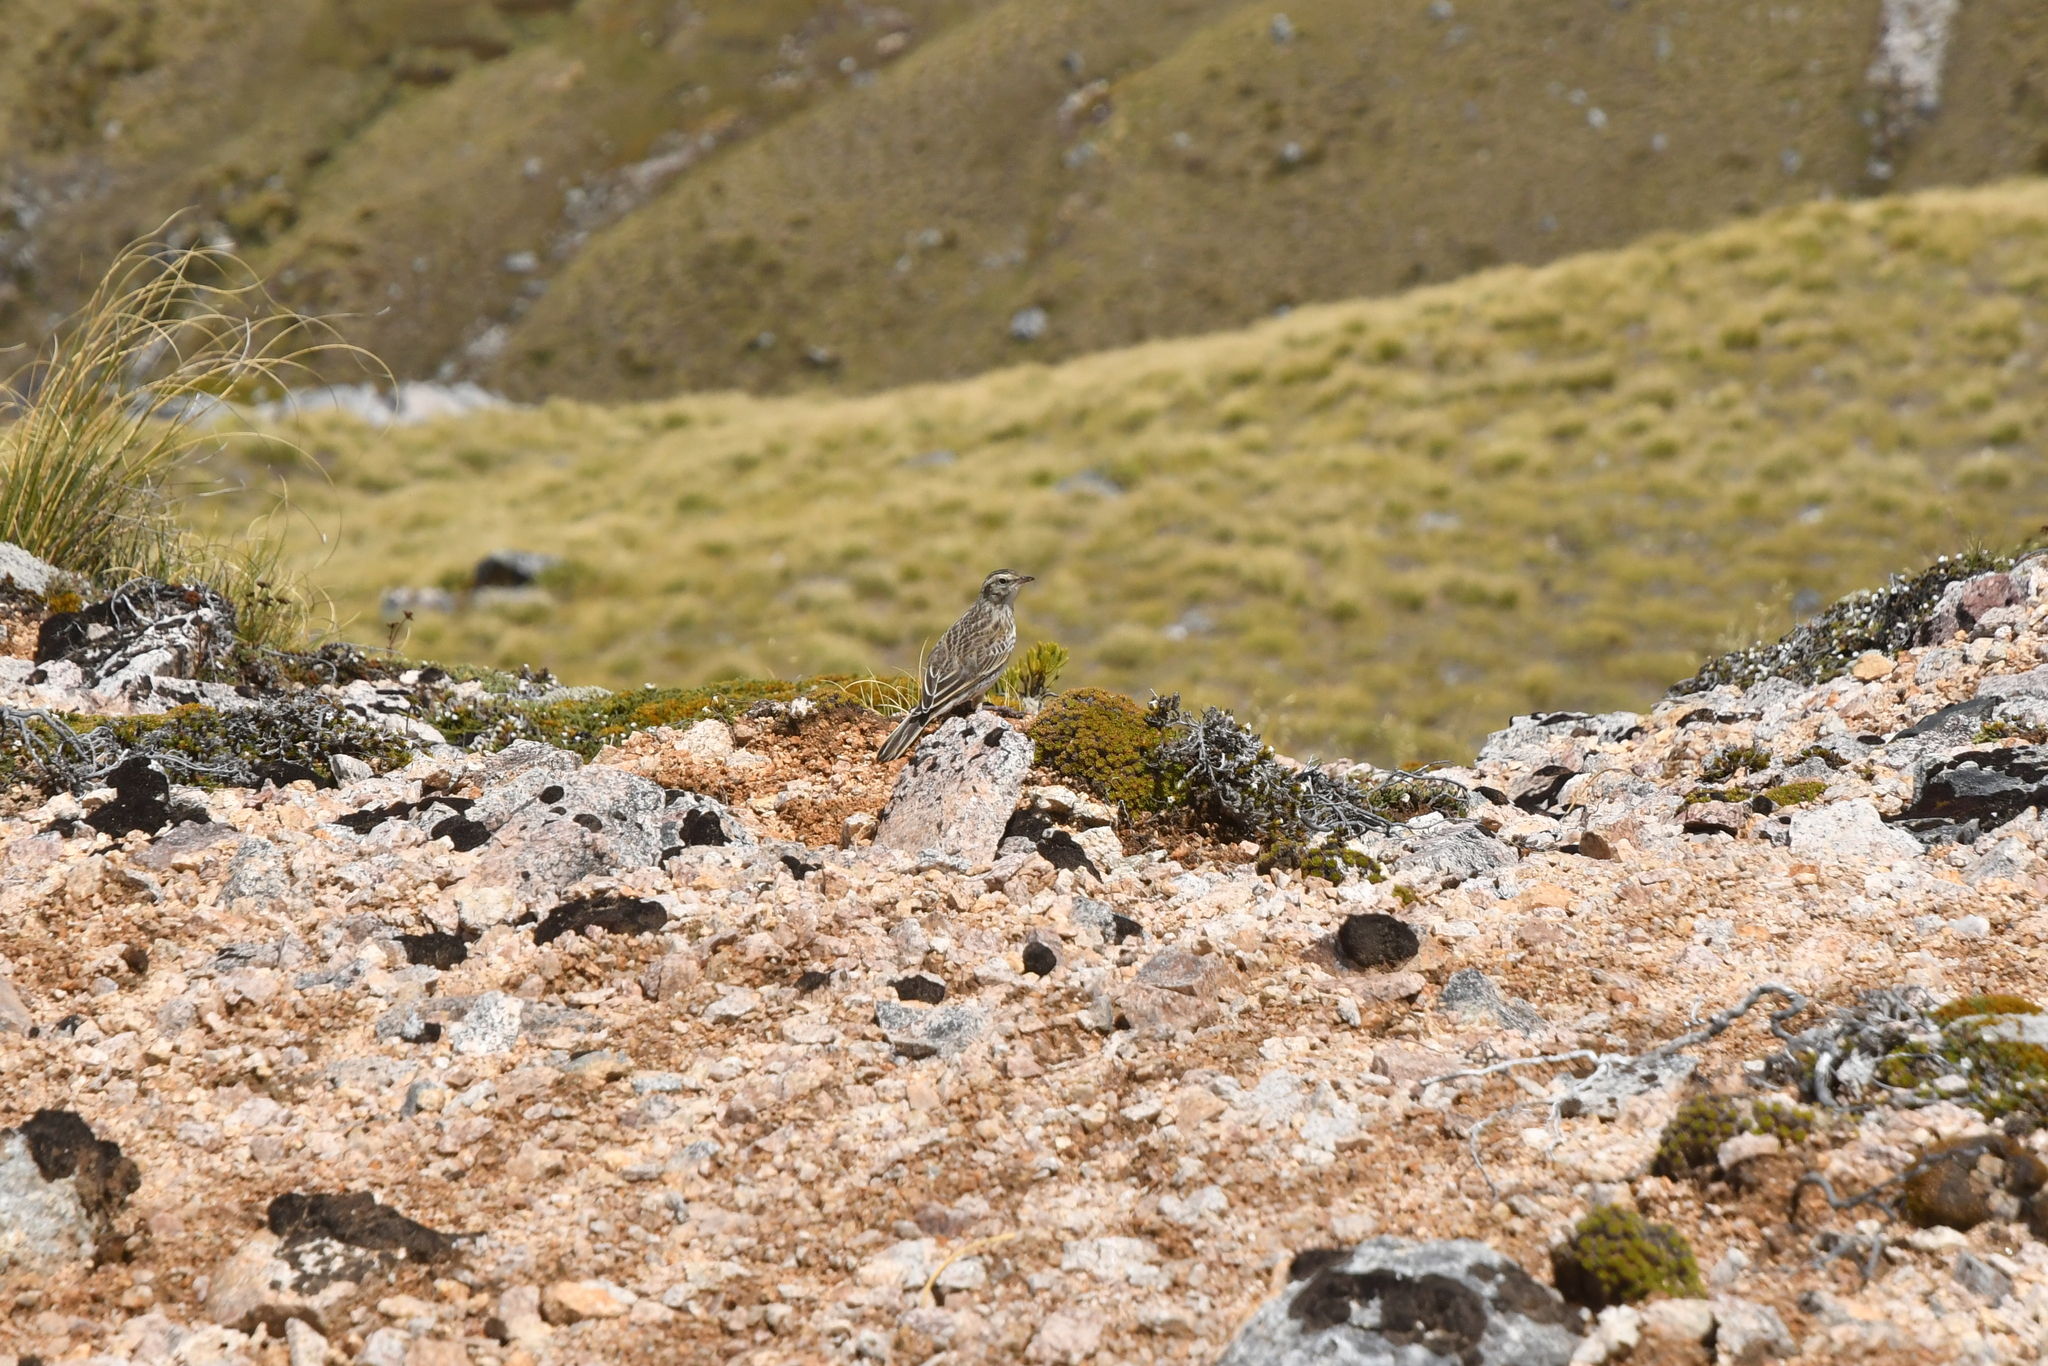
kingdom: Animalia
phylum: Chordata
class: Aves
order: Passeriformes
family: Motacillidae
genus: Anthus
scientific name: Anthus novaeseelandiae
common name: New zealand pipit
